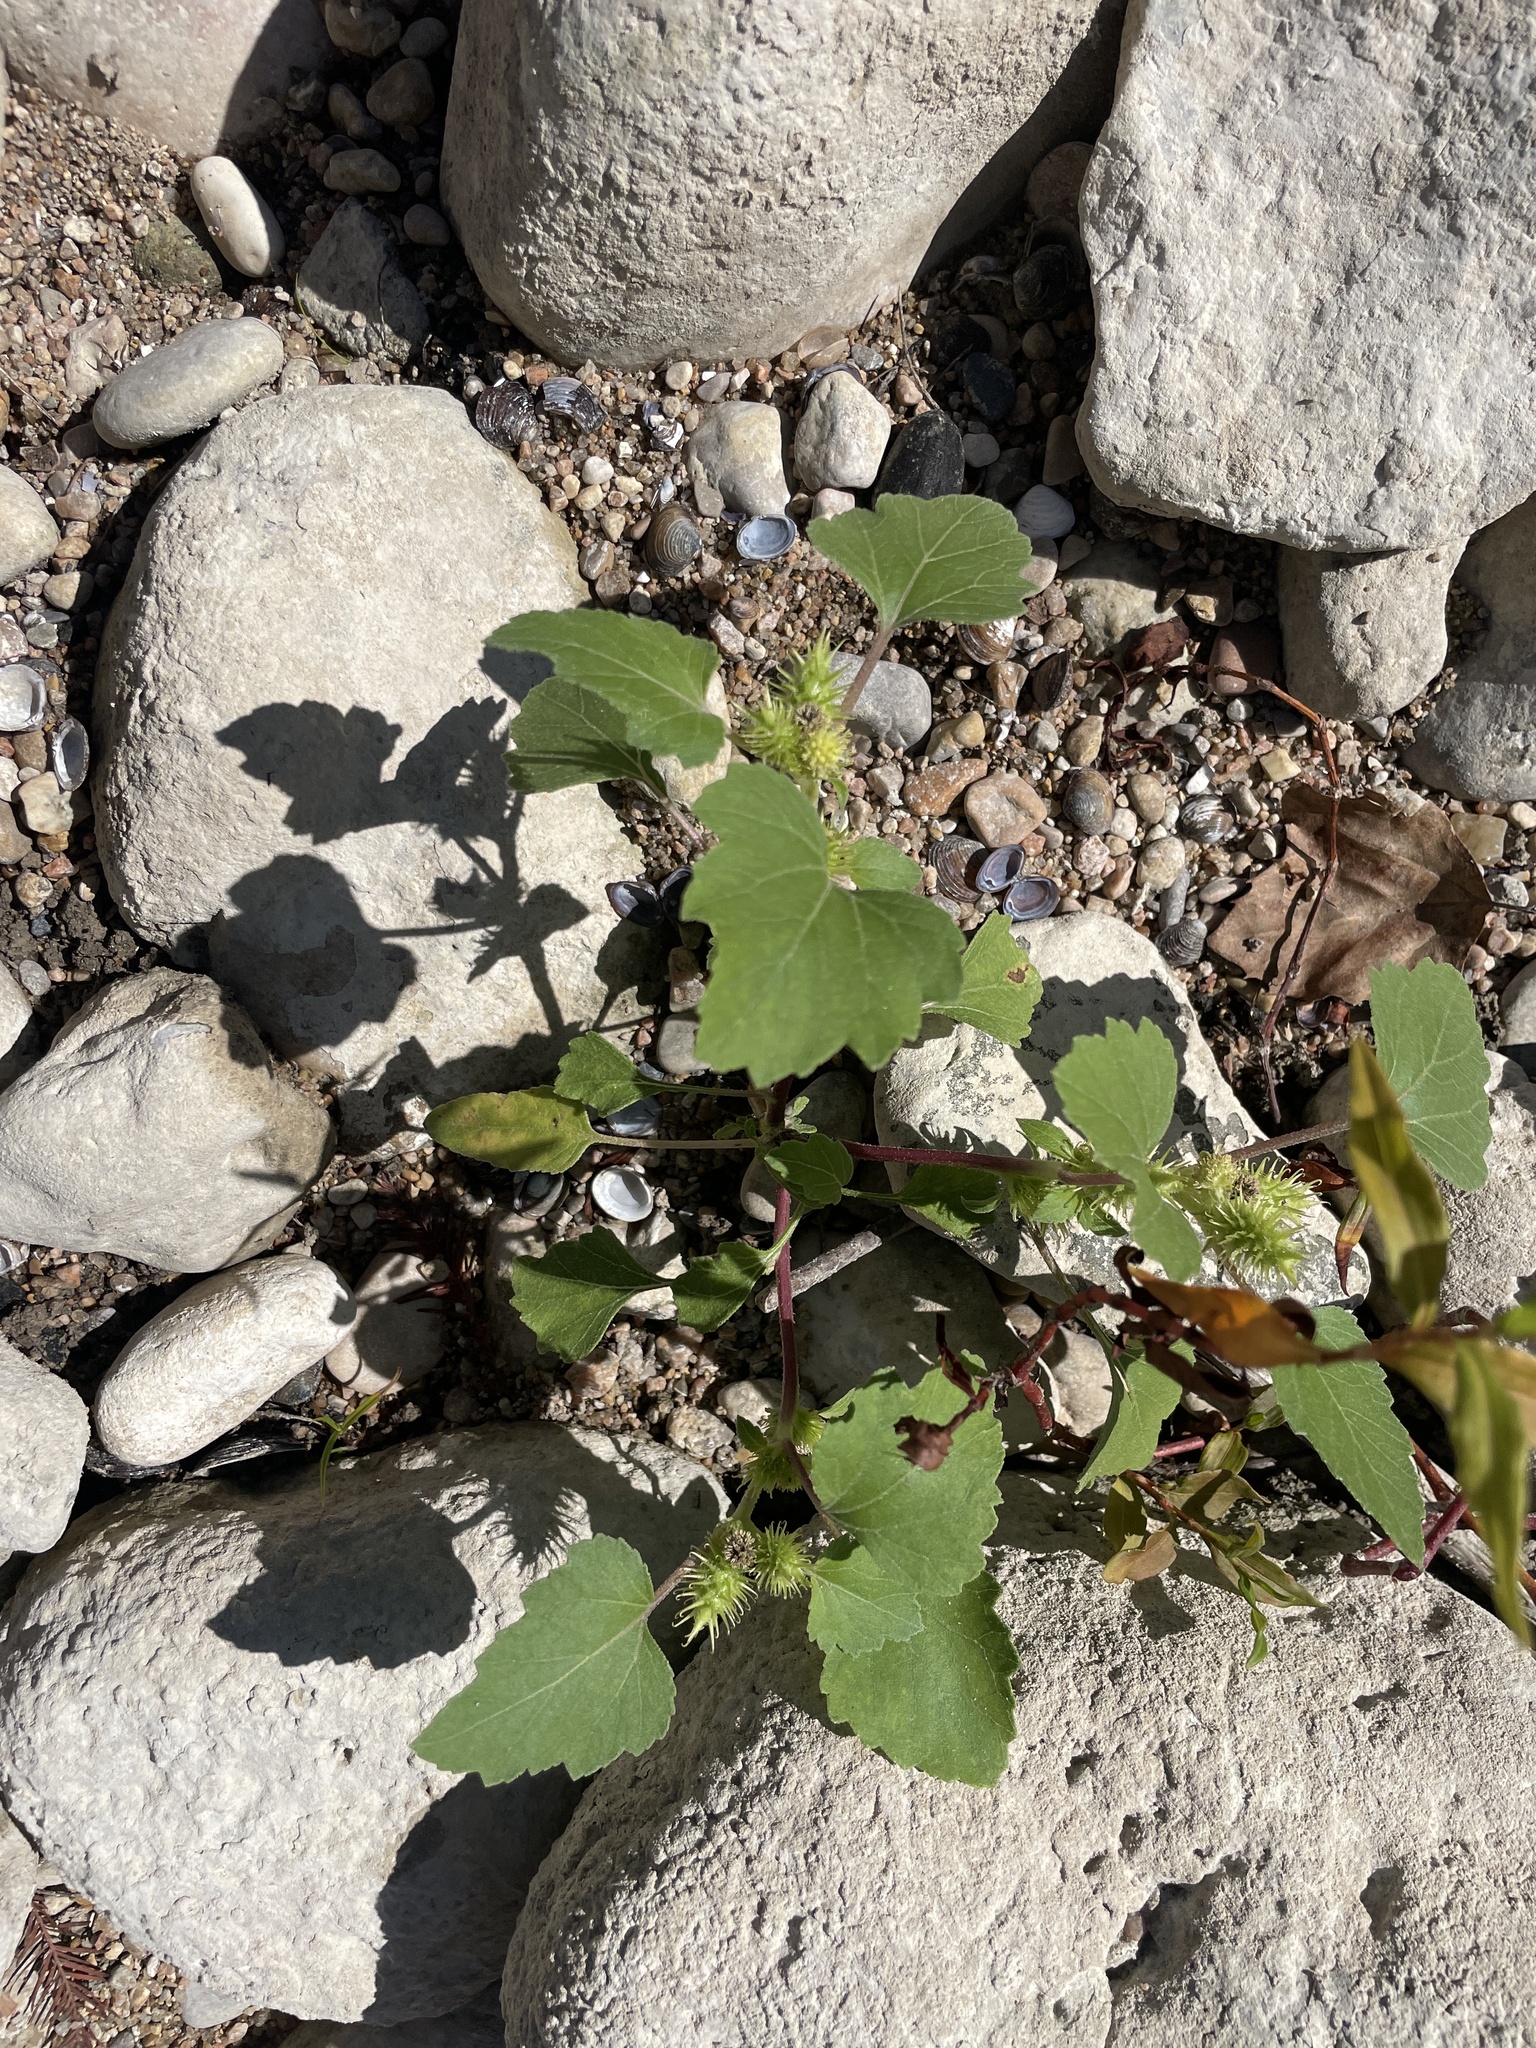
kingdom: Plantae
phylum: Tracheophyta
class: Magnoliopsida
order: Asterales
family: Asteraceae
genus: Xanthium
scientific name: Xanthium strumarium
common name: Rough cocklebur
